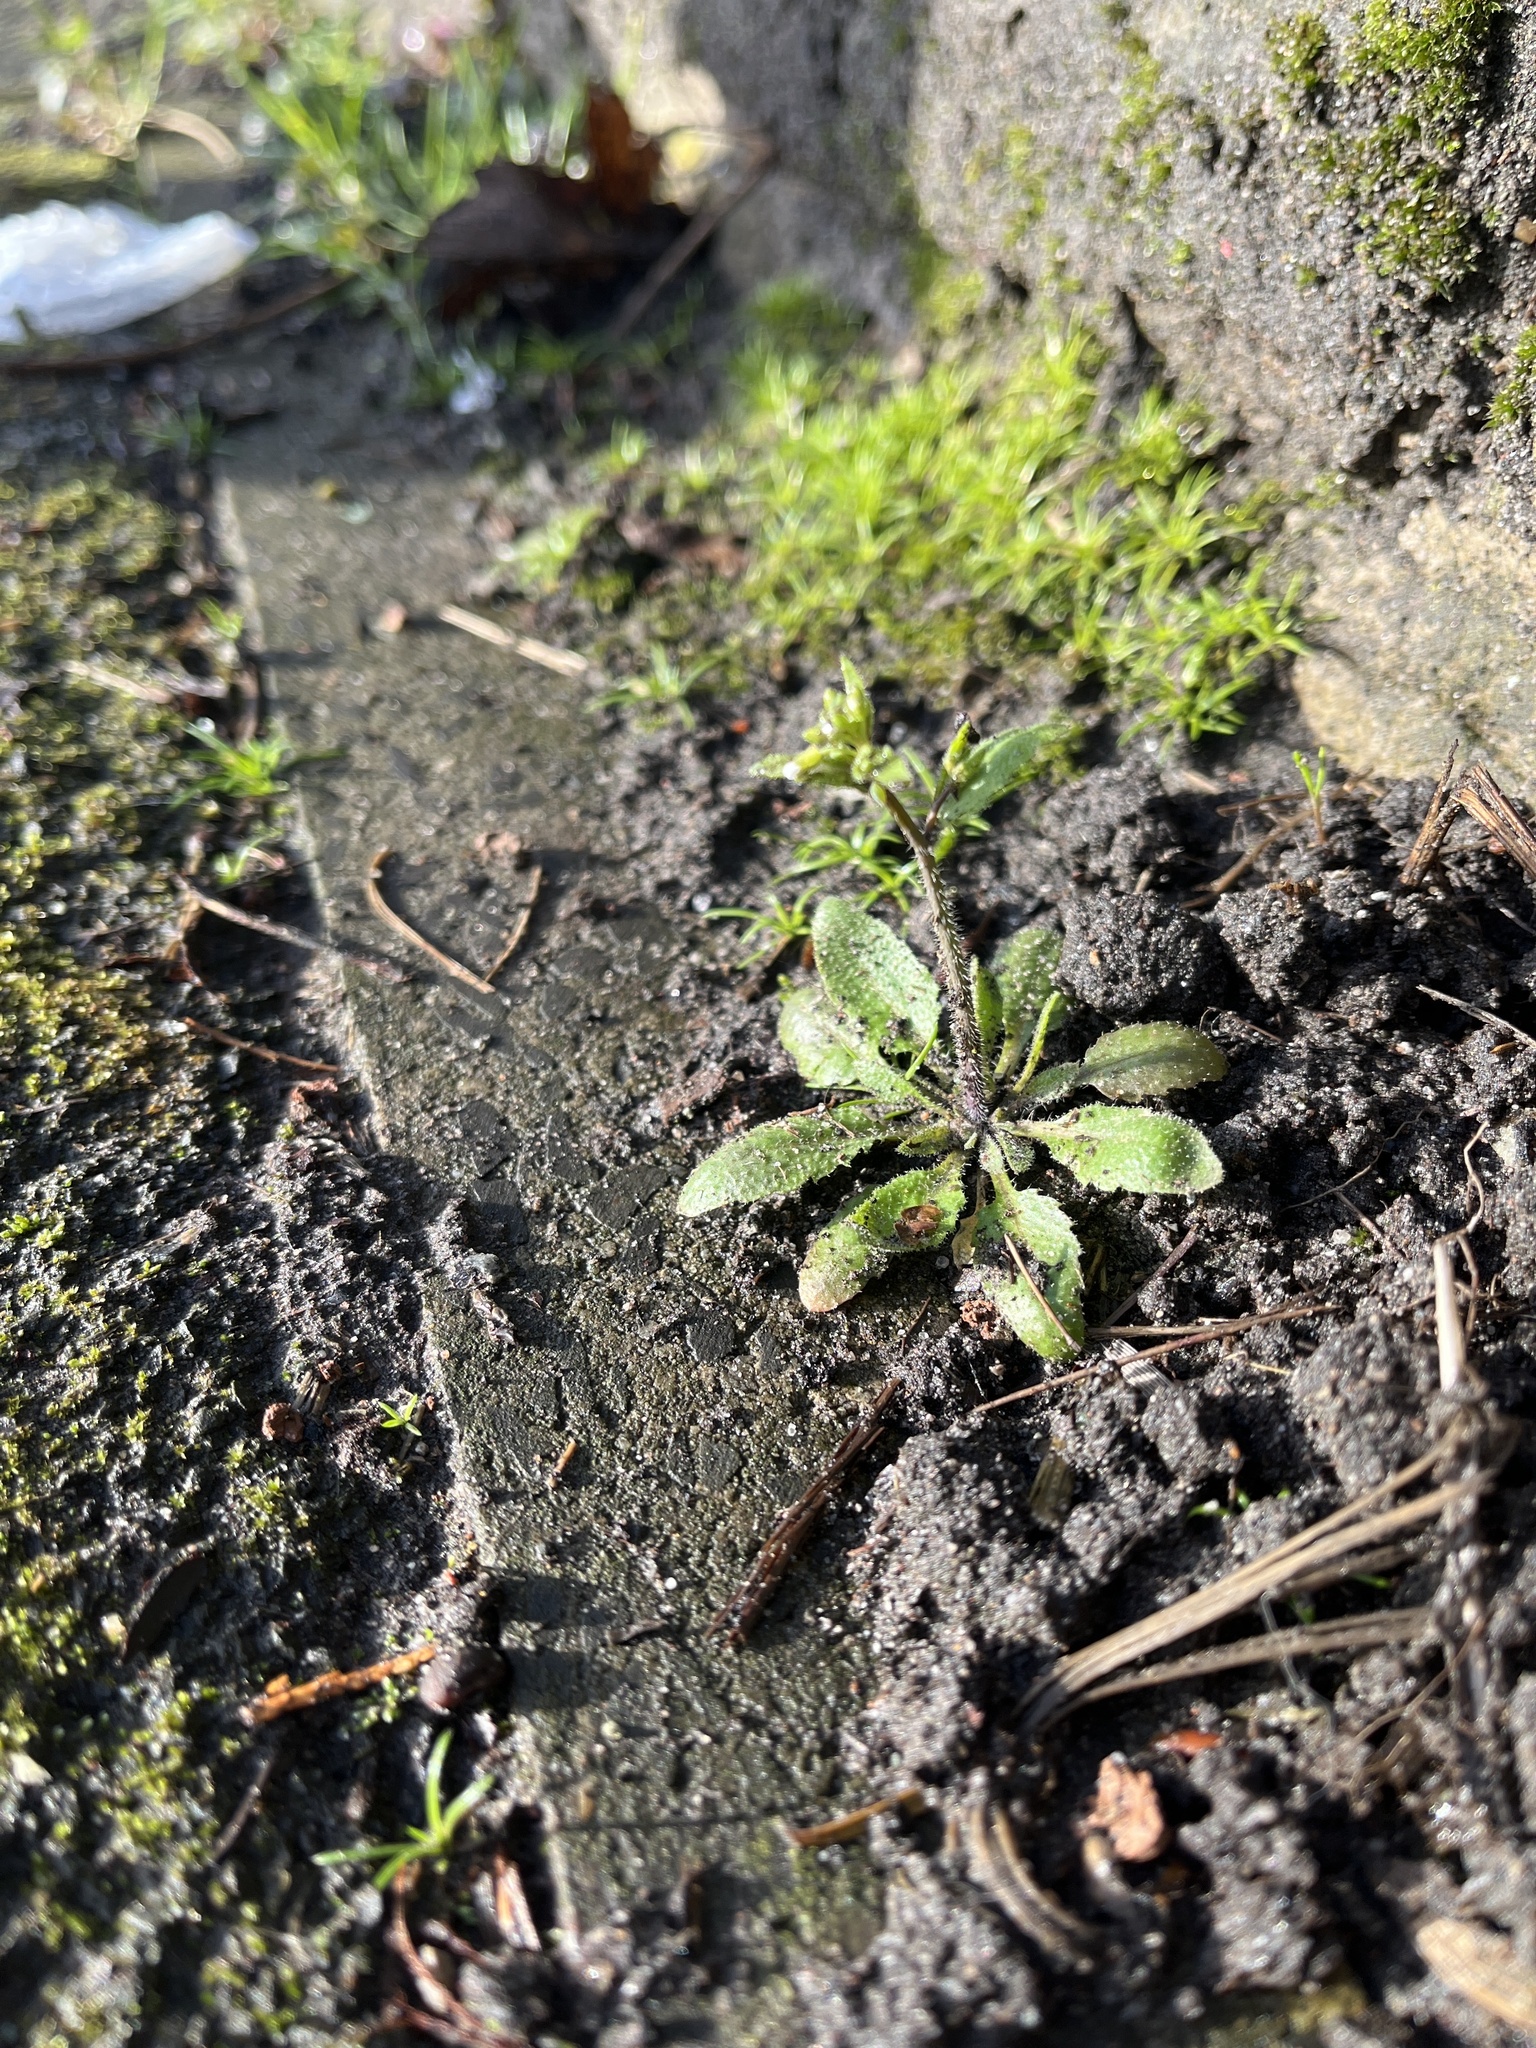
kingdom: Plantae
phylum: Tracheophyta
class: Magnoliopsida
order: Brassicales
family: Brassicaceae
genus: Arabidopsis
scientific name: Arabidopsis thaliana
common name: Thale cress
